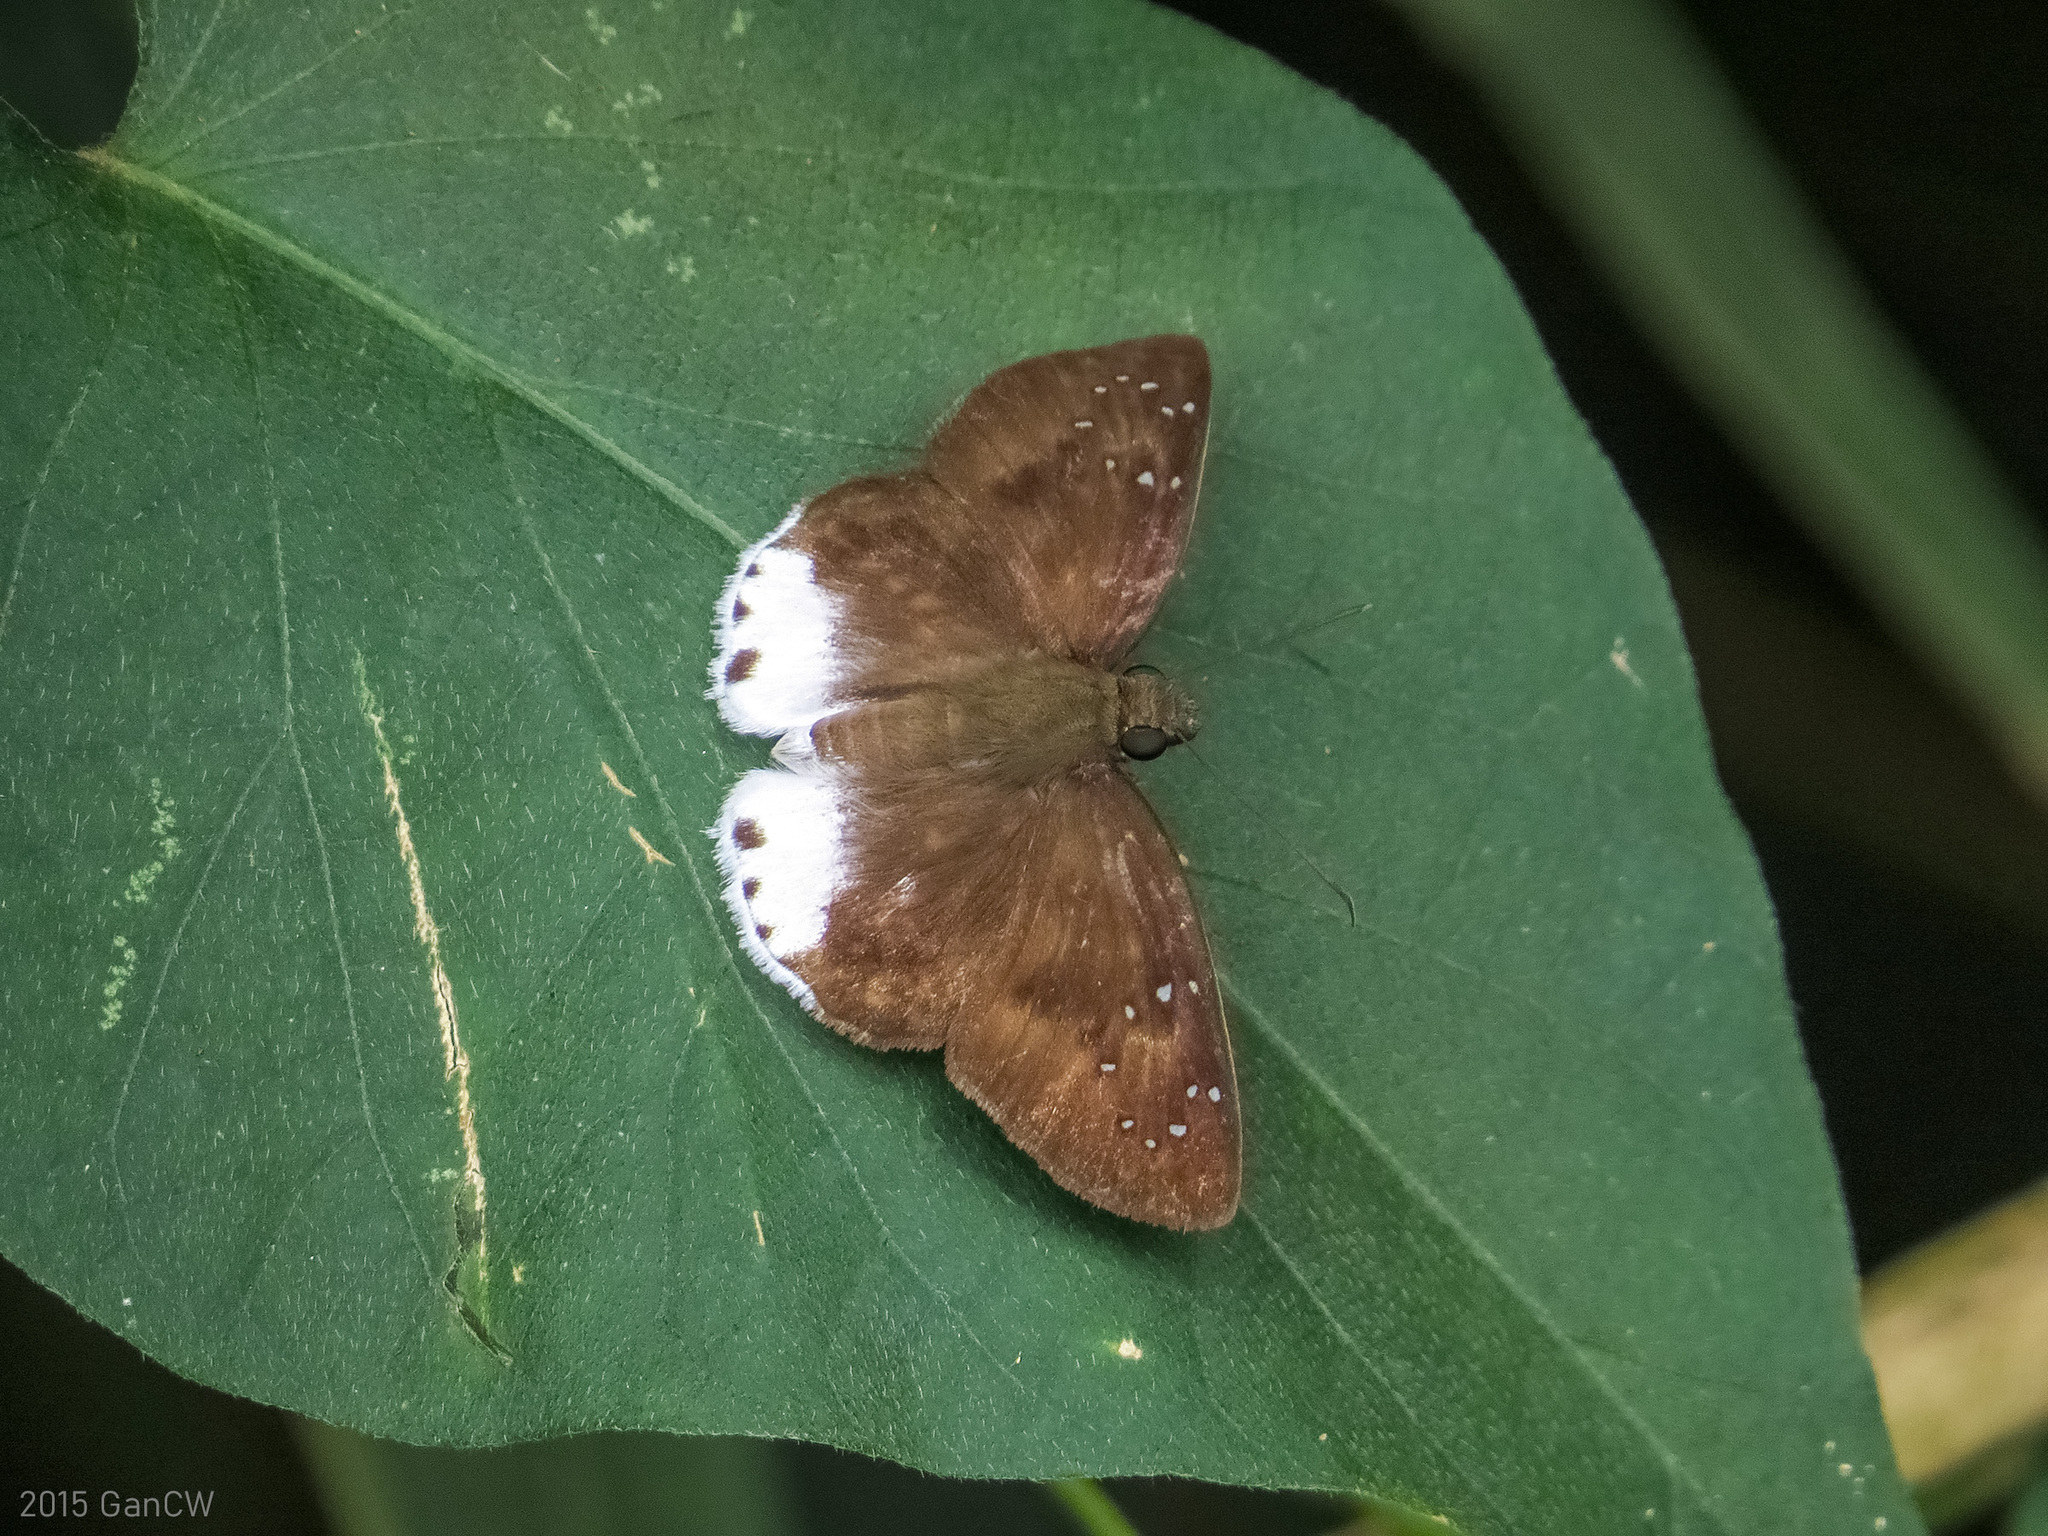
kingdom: Animalia
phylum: Arthropoda
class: Insecta
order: Lepidoptera
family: Hesperiidae
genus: Tagiades
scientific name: Tagiades toba
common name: Different-spotted snow flat
